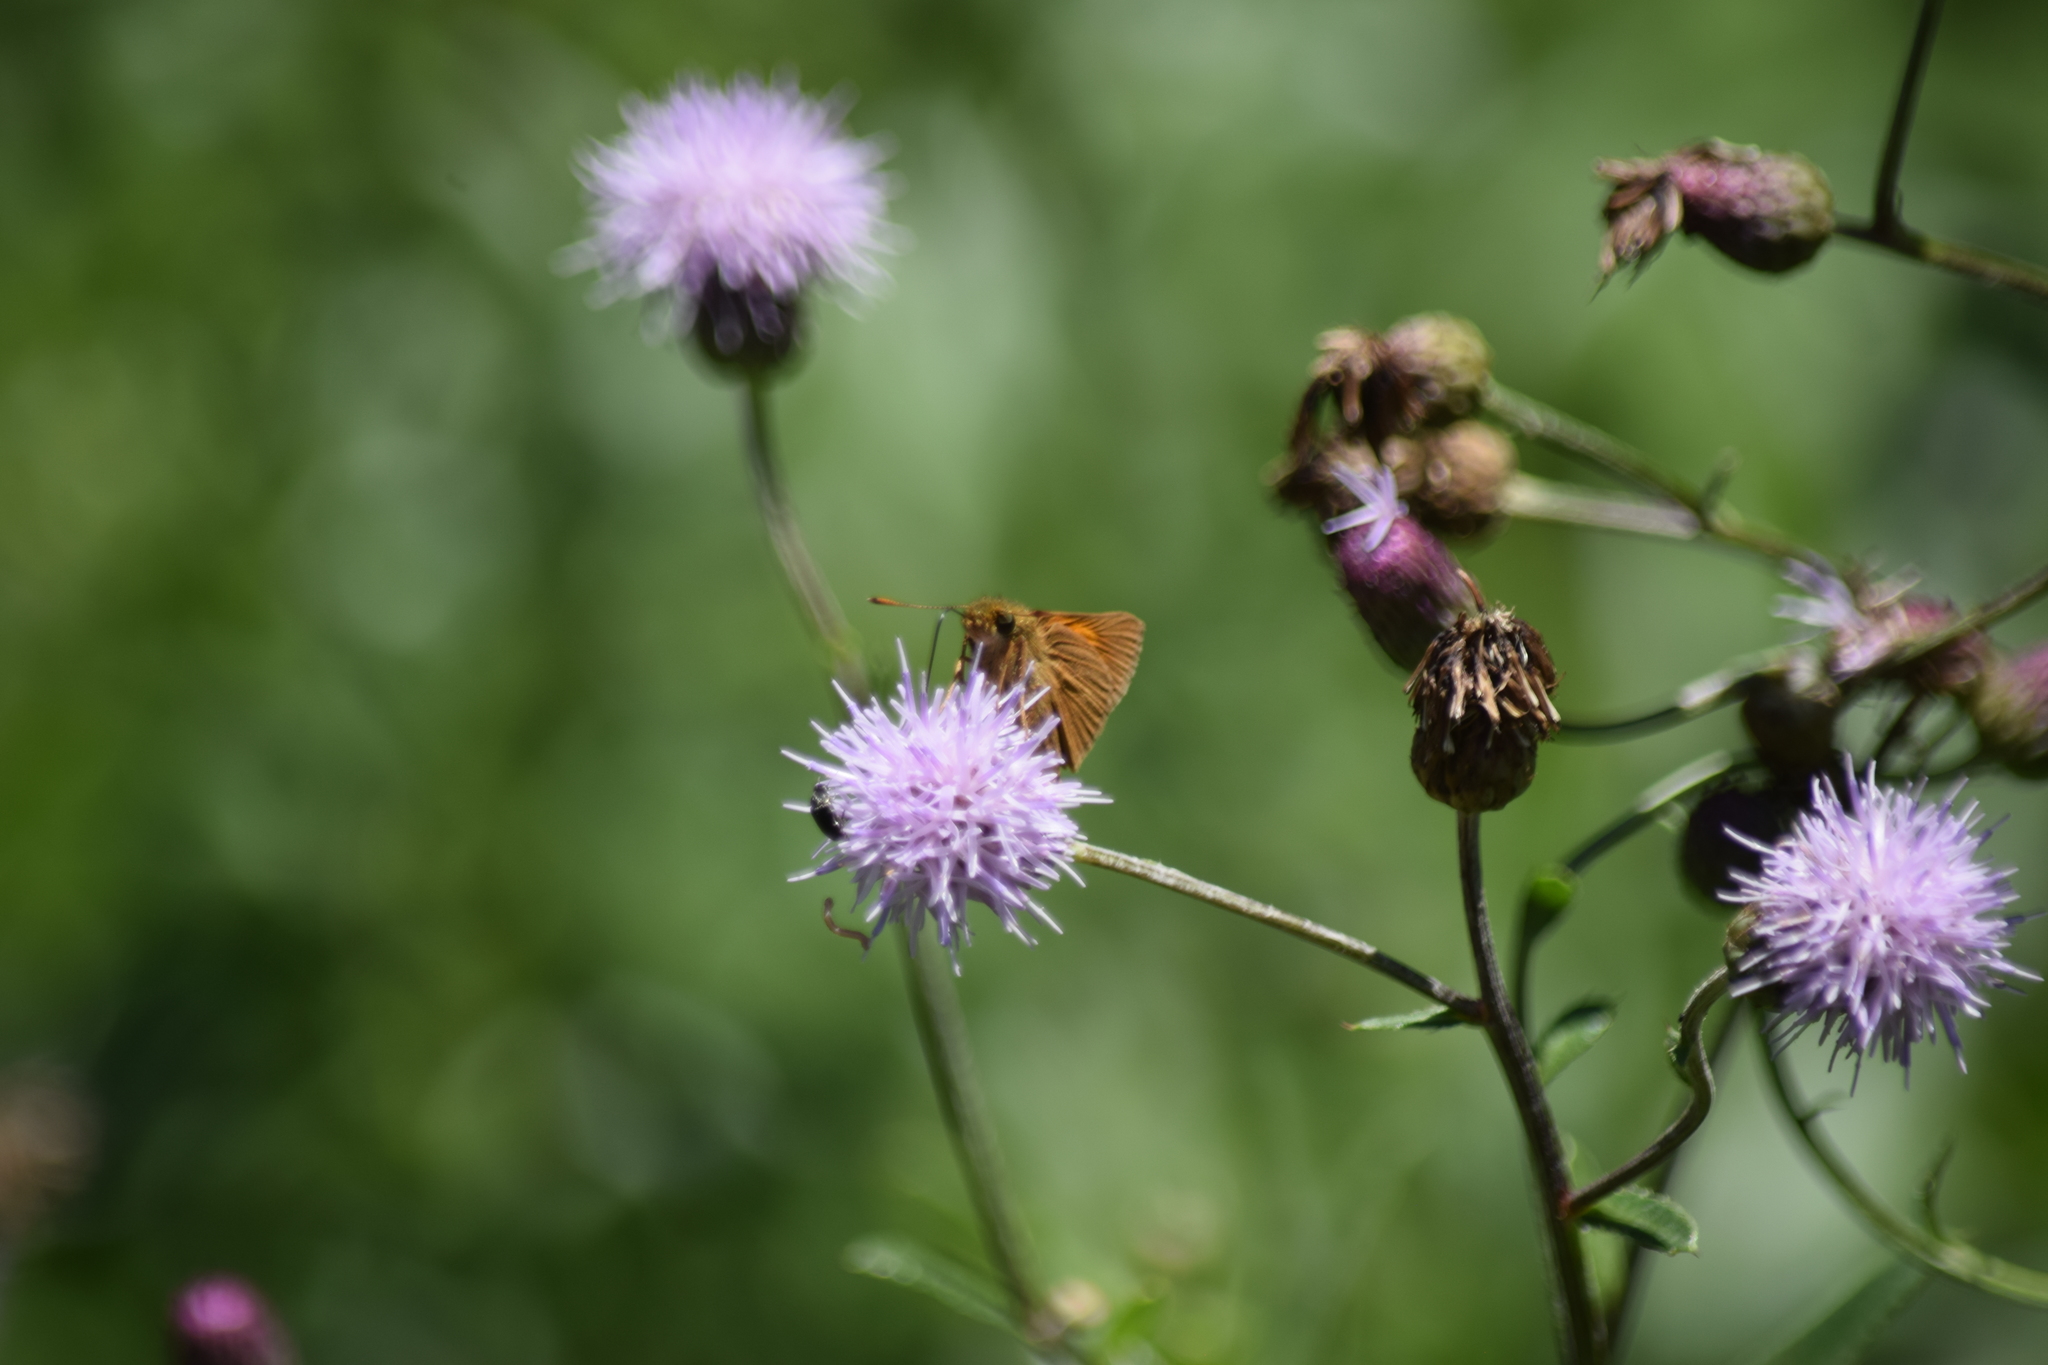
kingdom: Animalia
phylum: Arthropoda
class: Insecta
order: Lepidoptera
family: Hesperiidae
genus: Poanes
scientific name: Poanes aaroni
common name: Aaron's skipper
